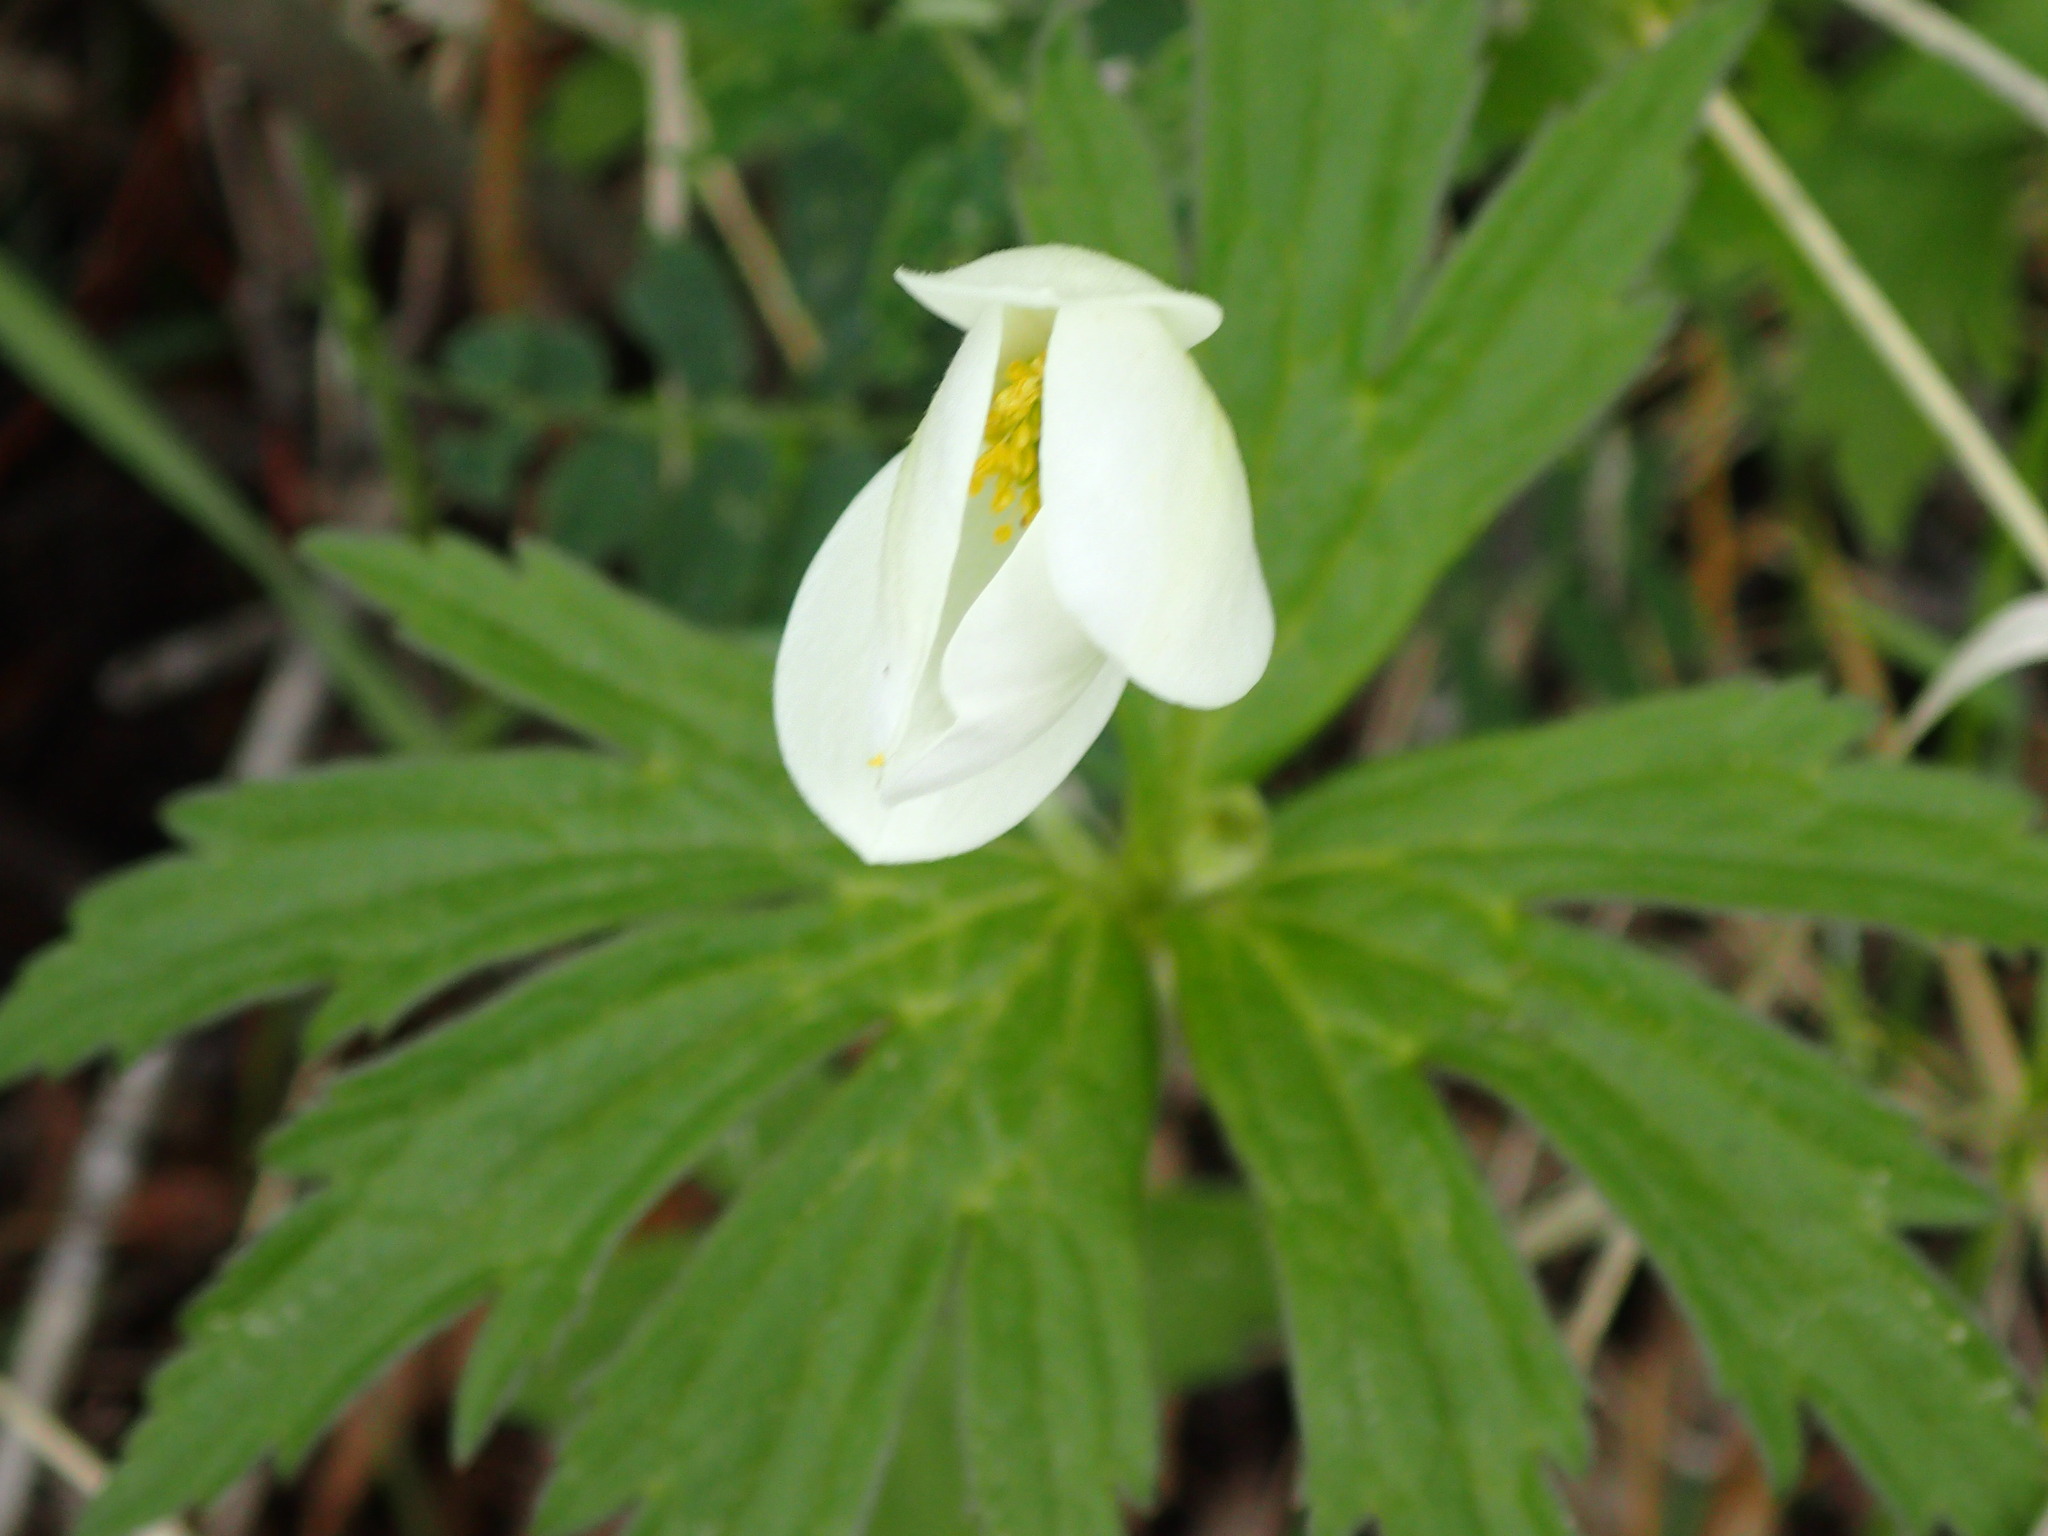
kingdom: Plantae
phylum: Tracheophyta
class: Magnoliopsida
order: Ranunculales
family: Ranunculaceae
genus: Anemonastrum
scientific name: Anemonastrum canadense
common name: Canada anemone
